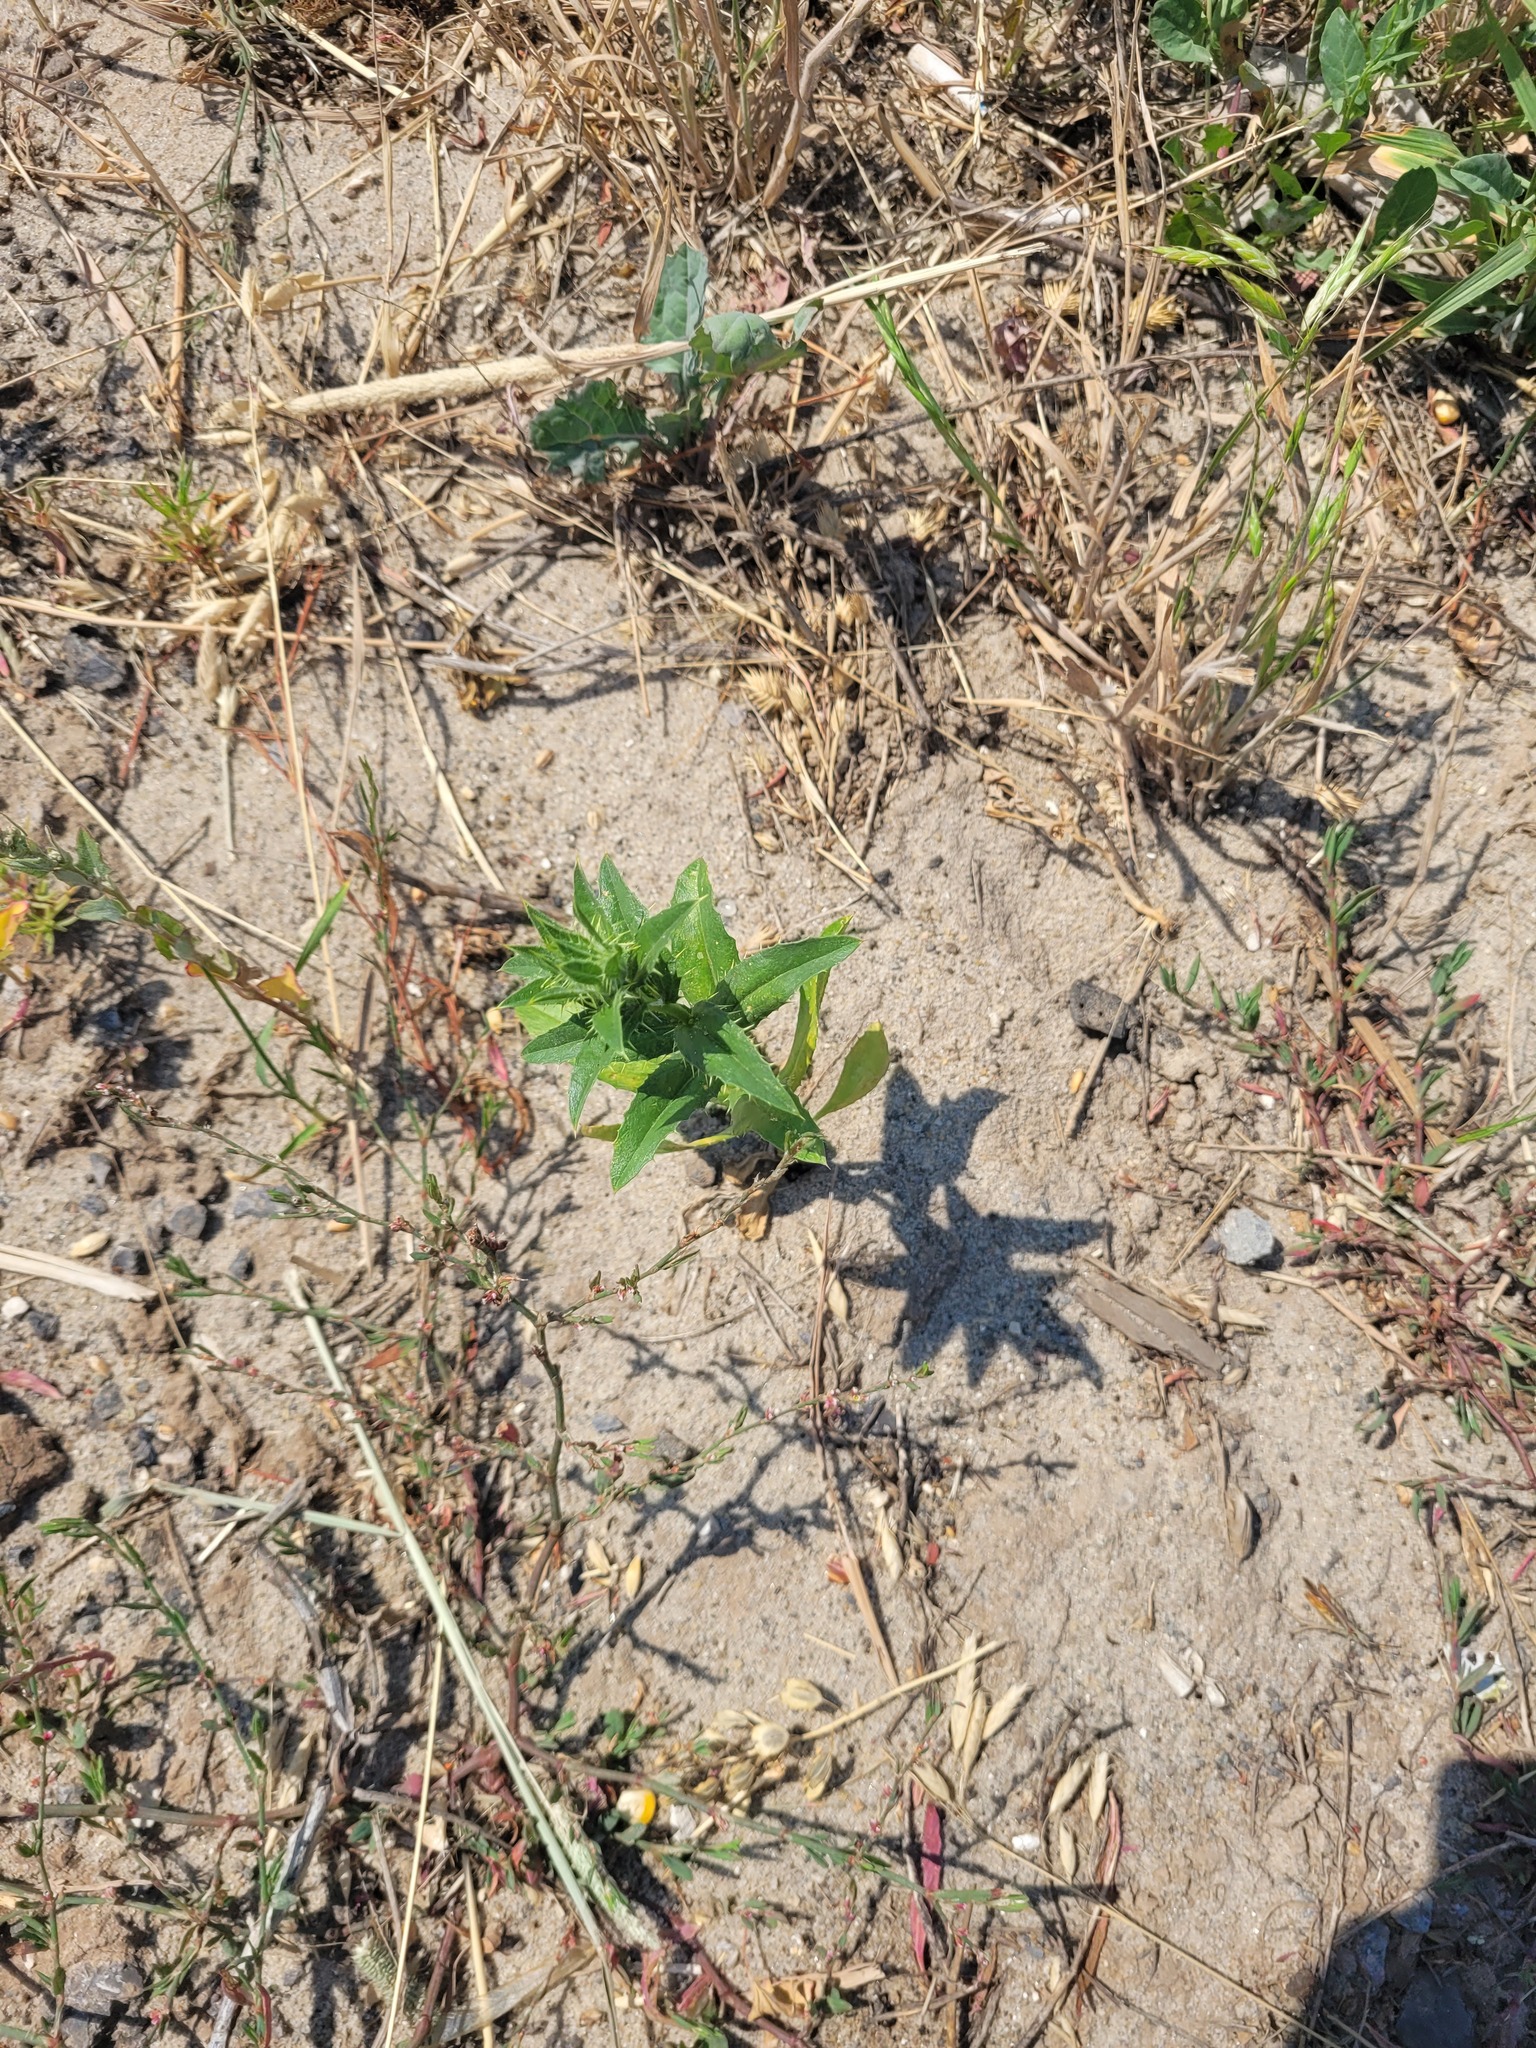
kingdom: Plantae
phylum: Tracheophyta
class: Magnoliopsida
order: Asterales
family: Asteraceae
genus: Carthamus
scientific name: Carthamus tinctorius
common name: Safflower
